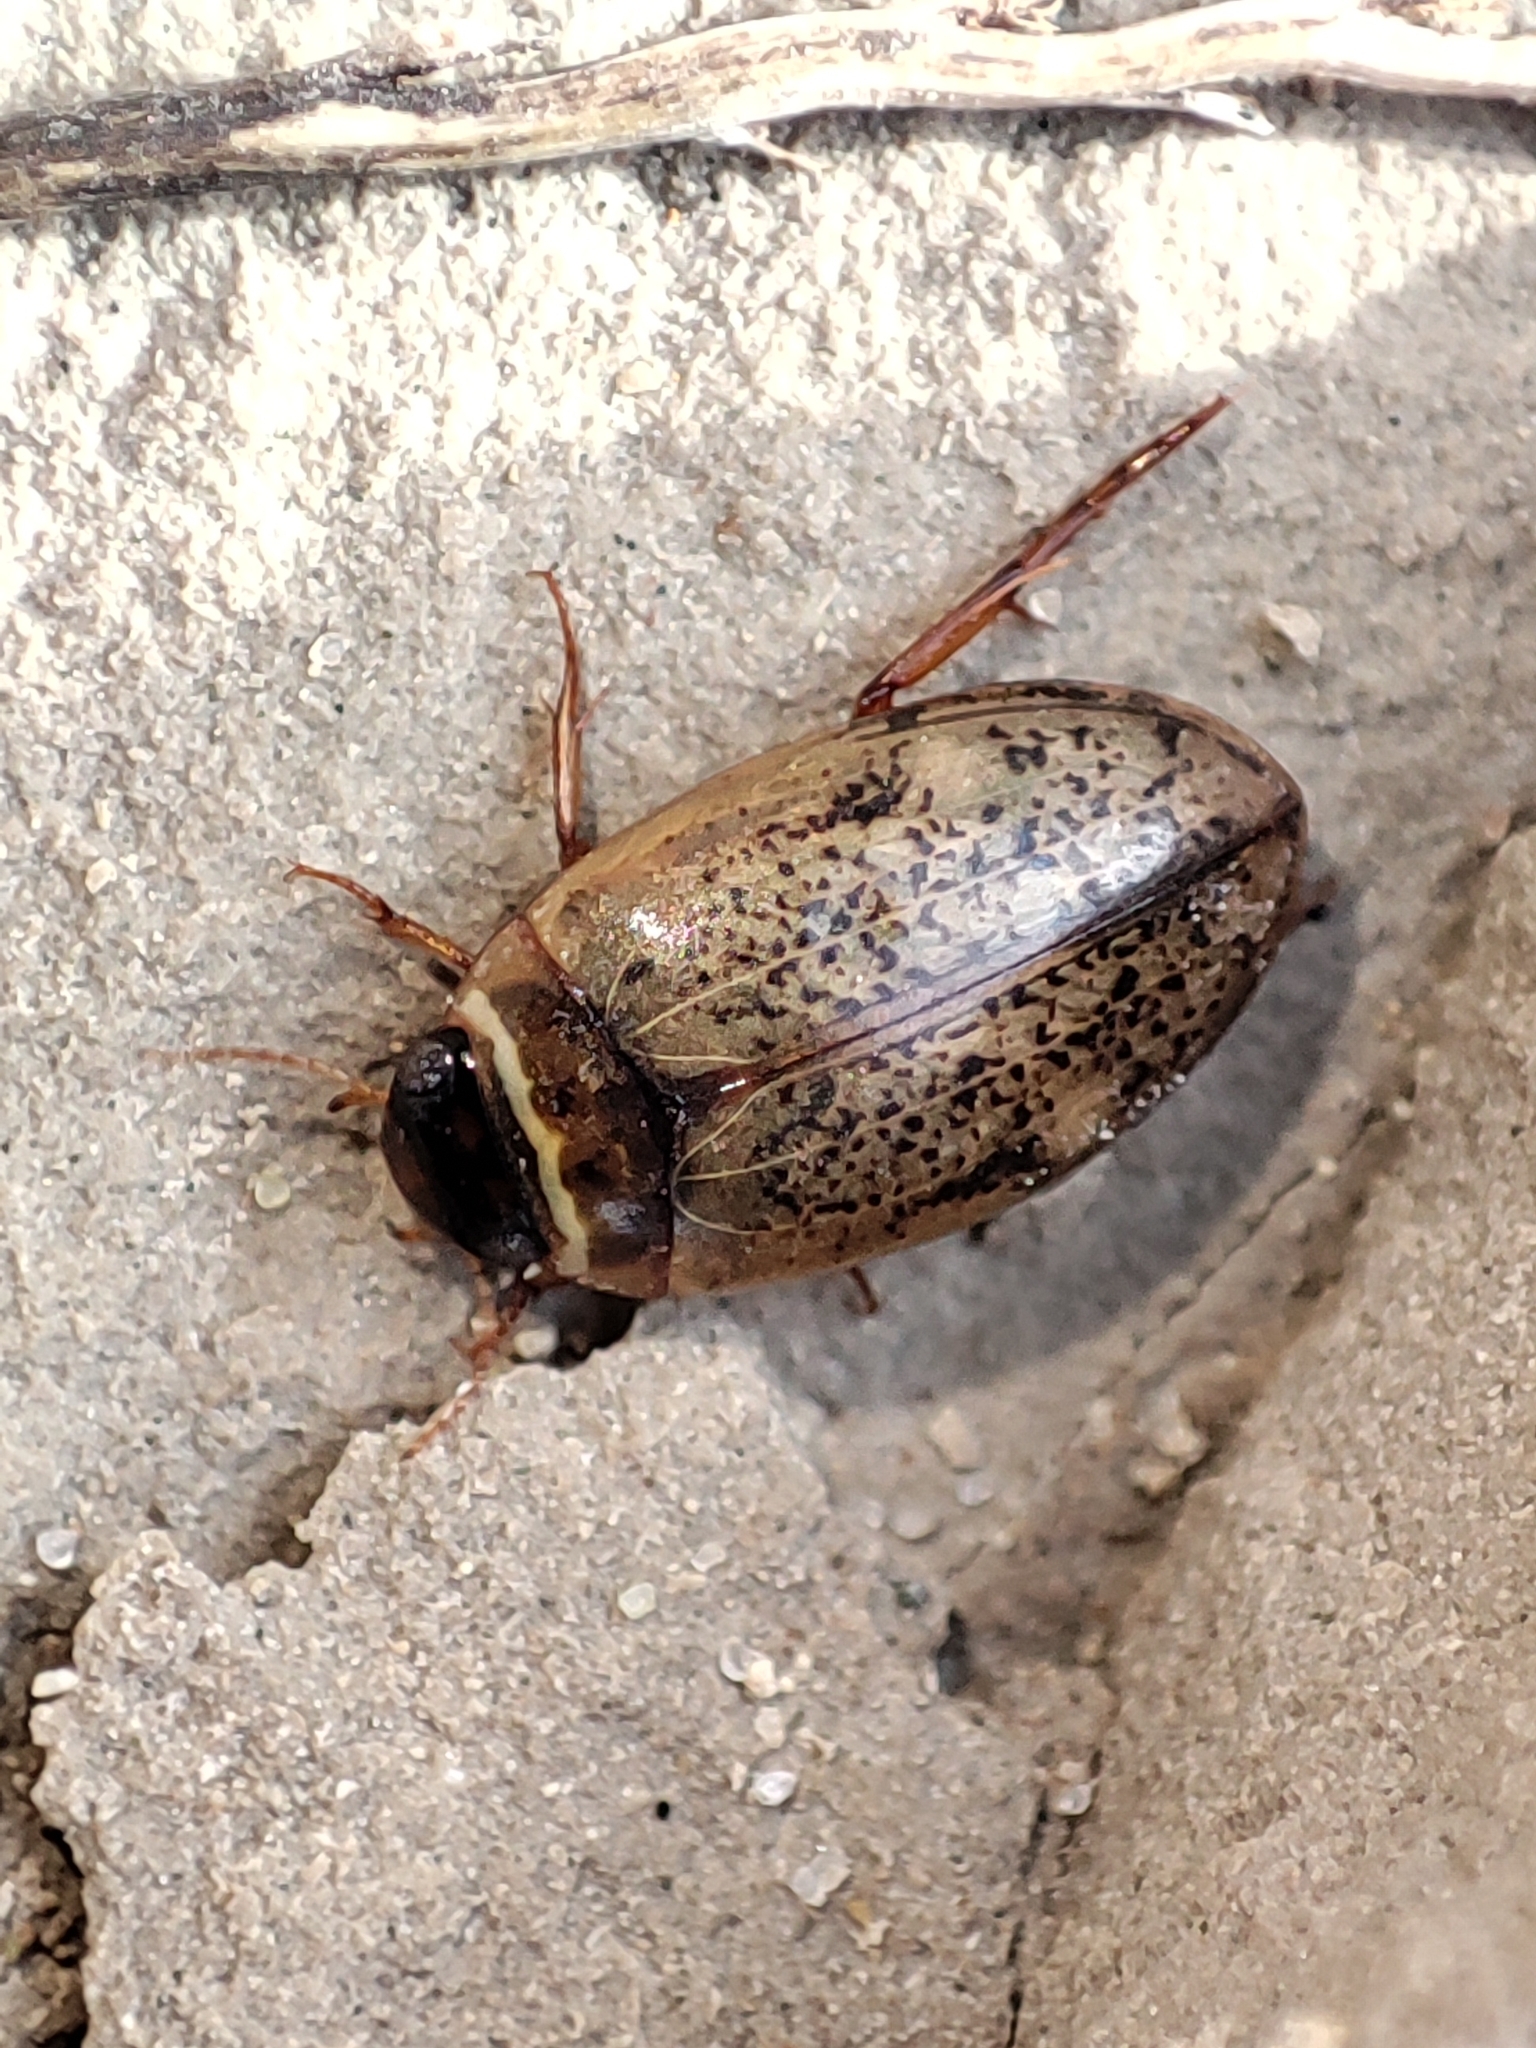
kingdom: Animalia
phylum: Arthropoda
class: Insecta
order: Coleoptera
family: Dytiscidae
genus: Agabus
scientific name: Agabus nebulosus
